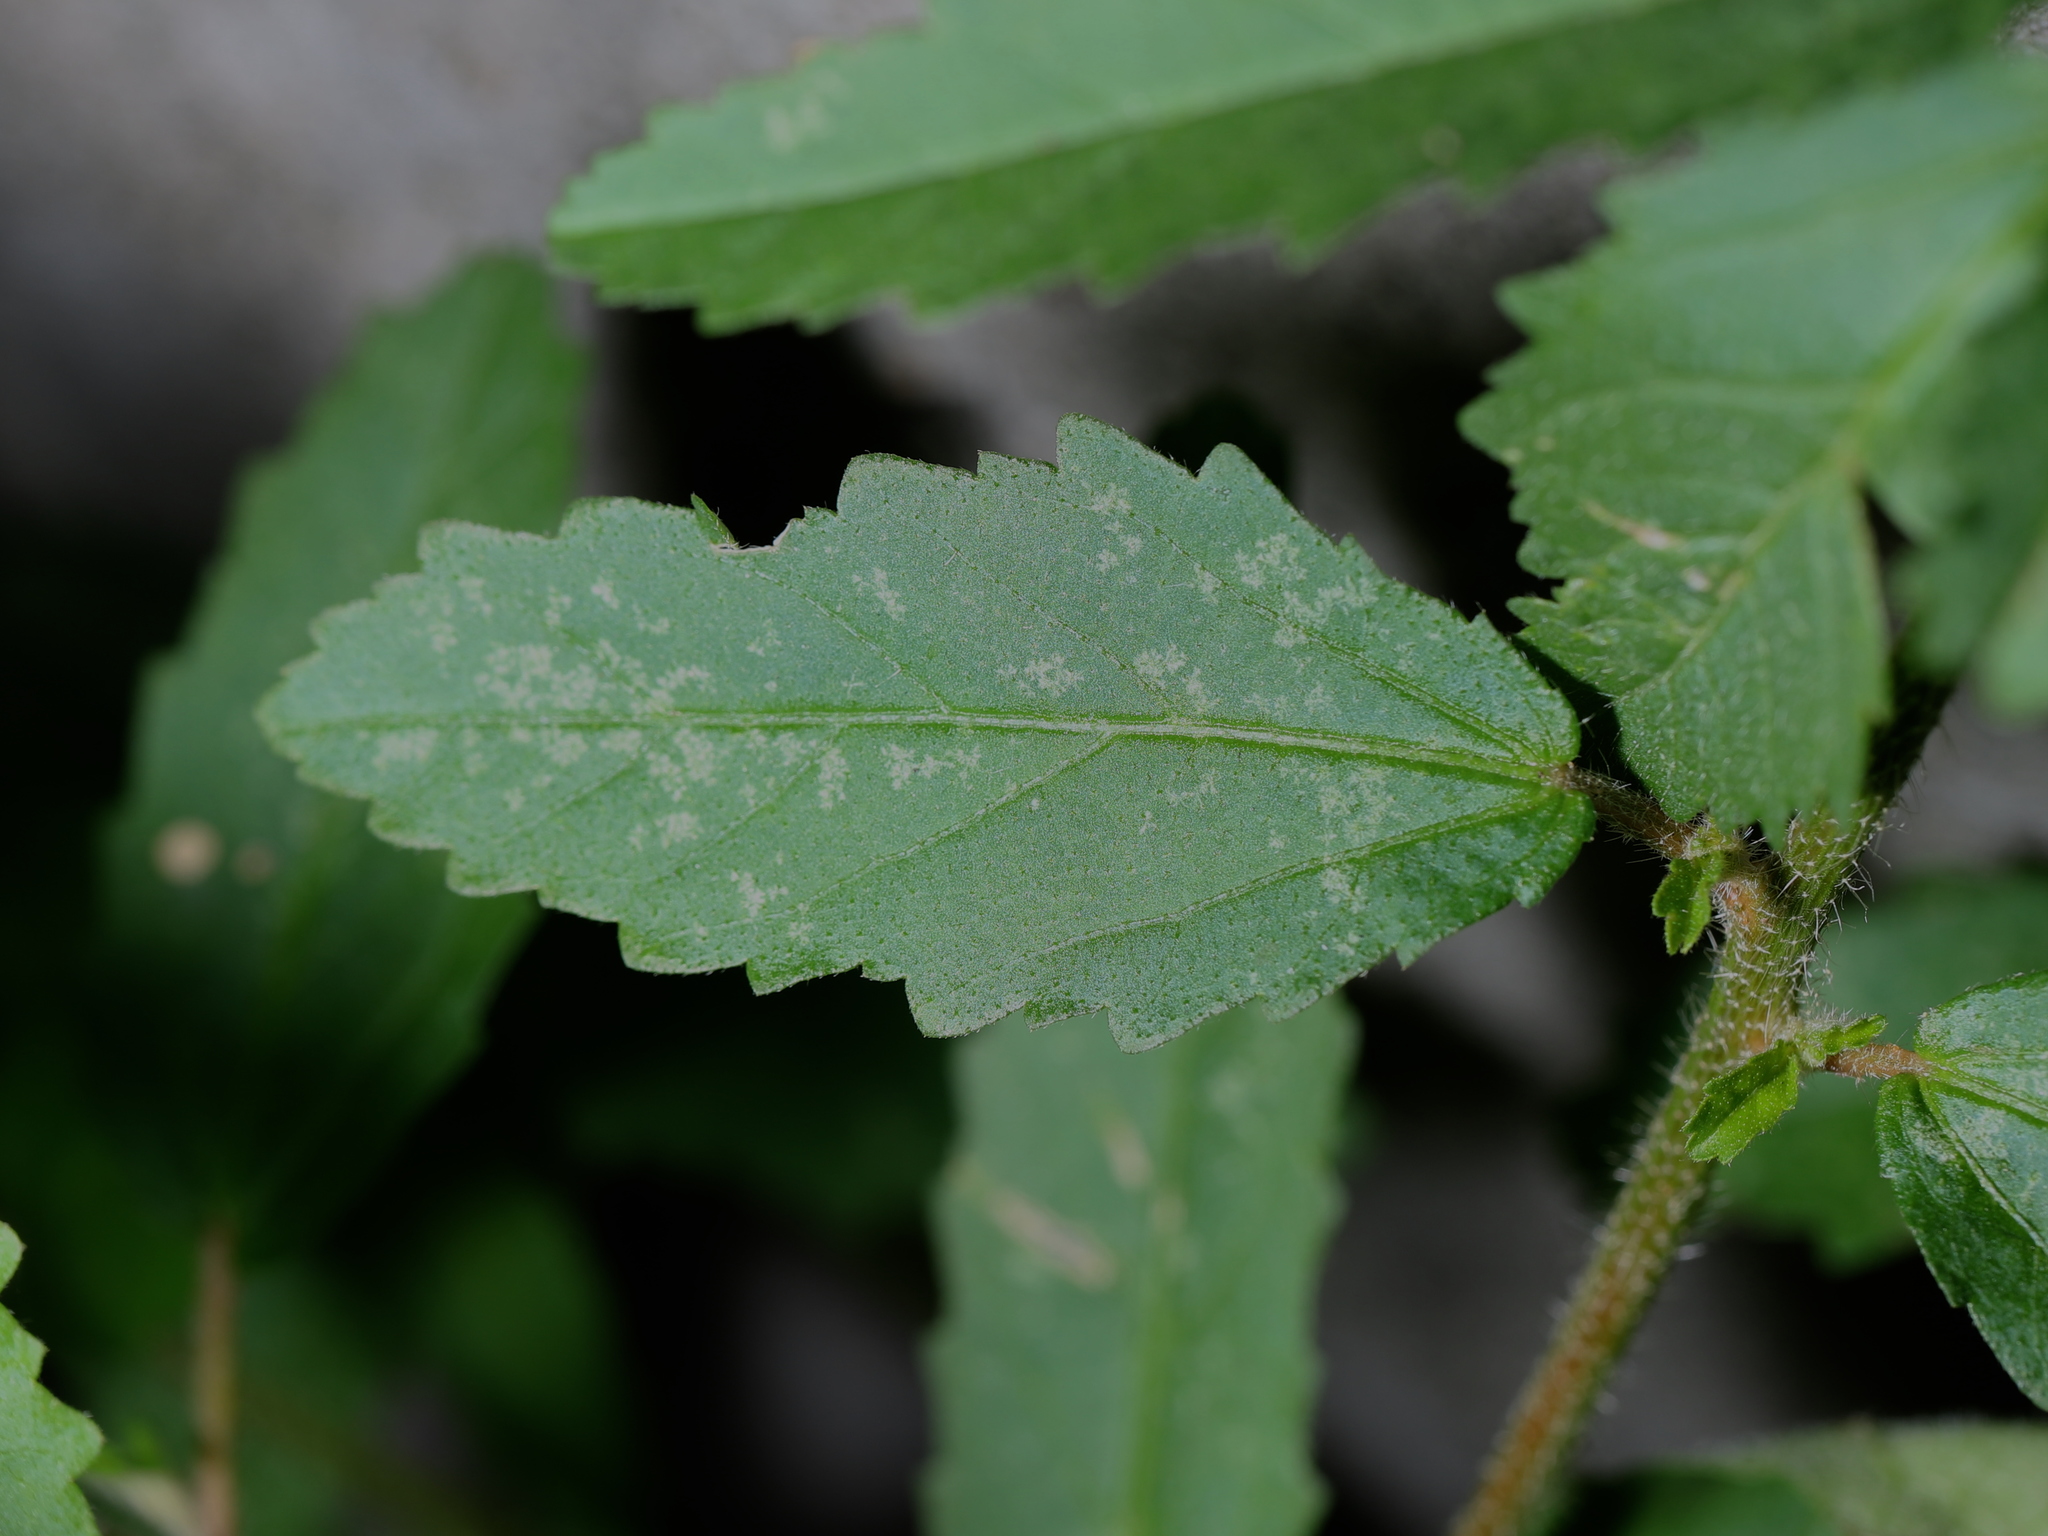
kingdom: Plantae
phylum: Tracheophyta
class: Magnoliopsida
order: Malpighiales
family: Euphorbiaceae
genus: Croton
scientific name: Croton glandulosus
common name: Tropic croton
